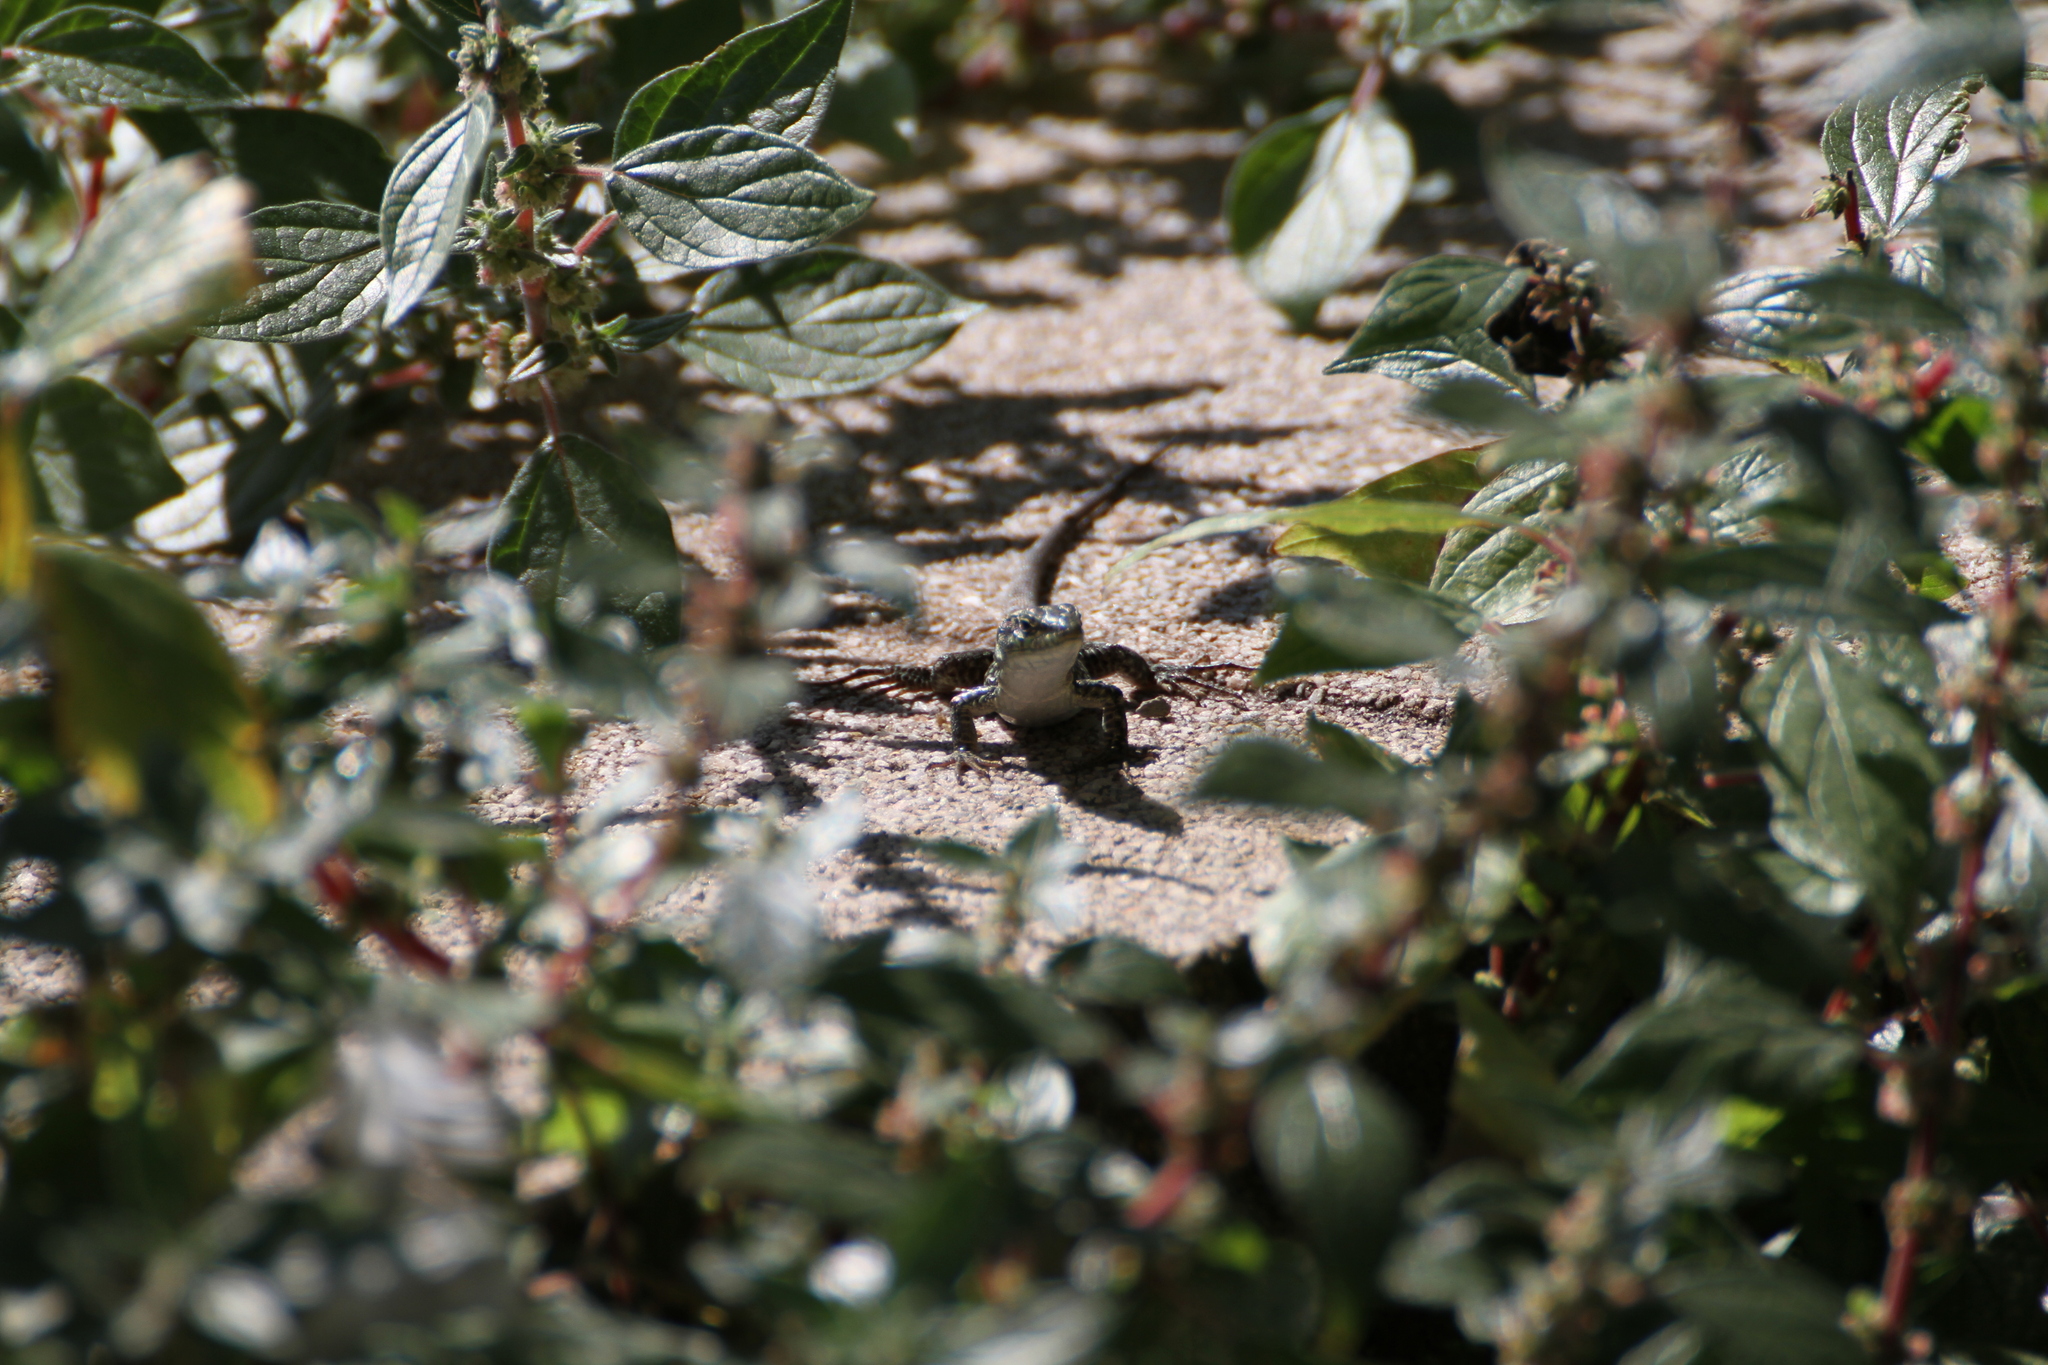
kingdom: Animalia
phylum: Chordata
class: Squamata
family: Lacertidae
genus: Podarcis
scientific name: Podarcis siculus
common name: Italian wall lizard
